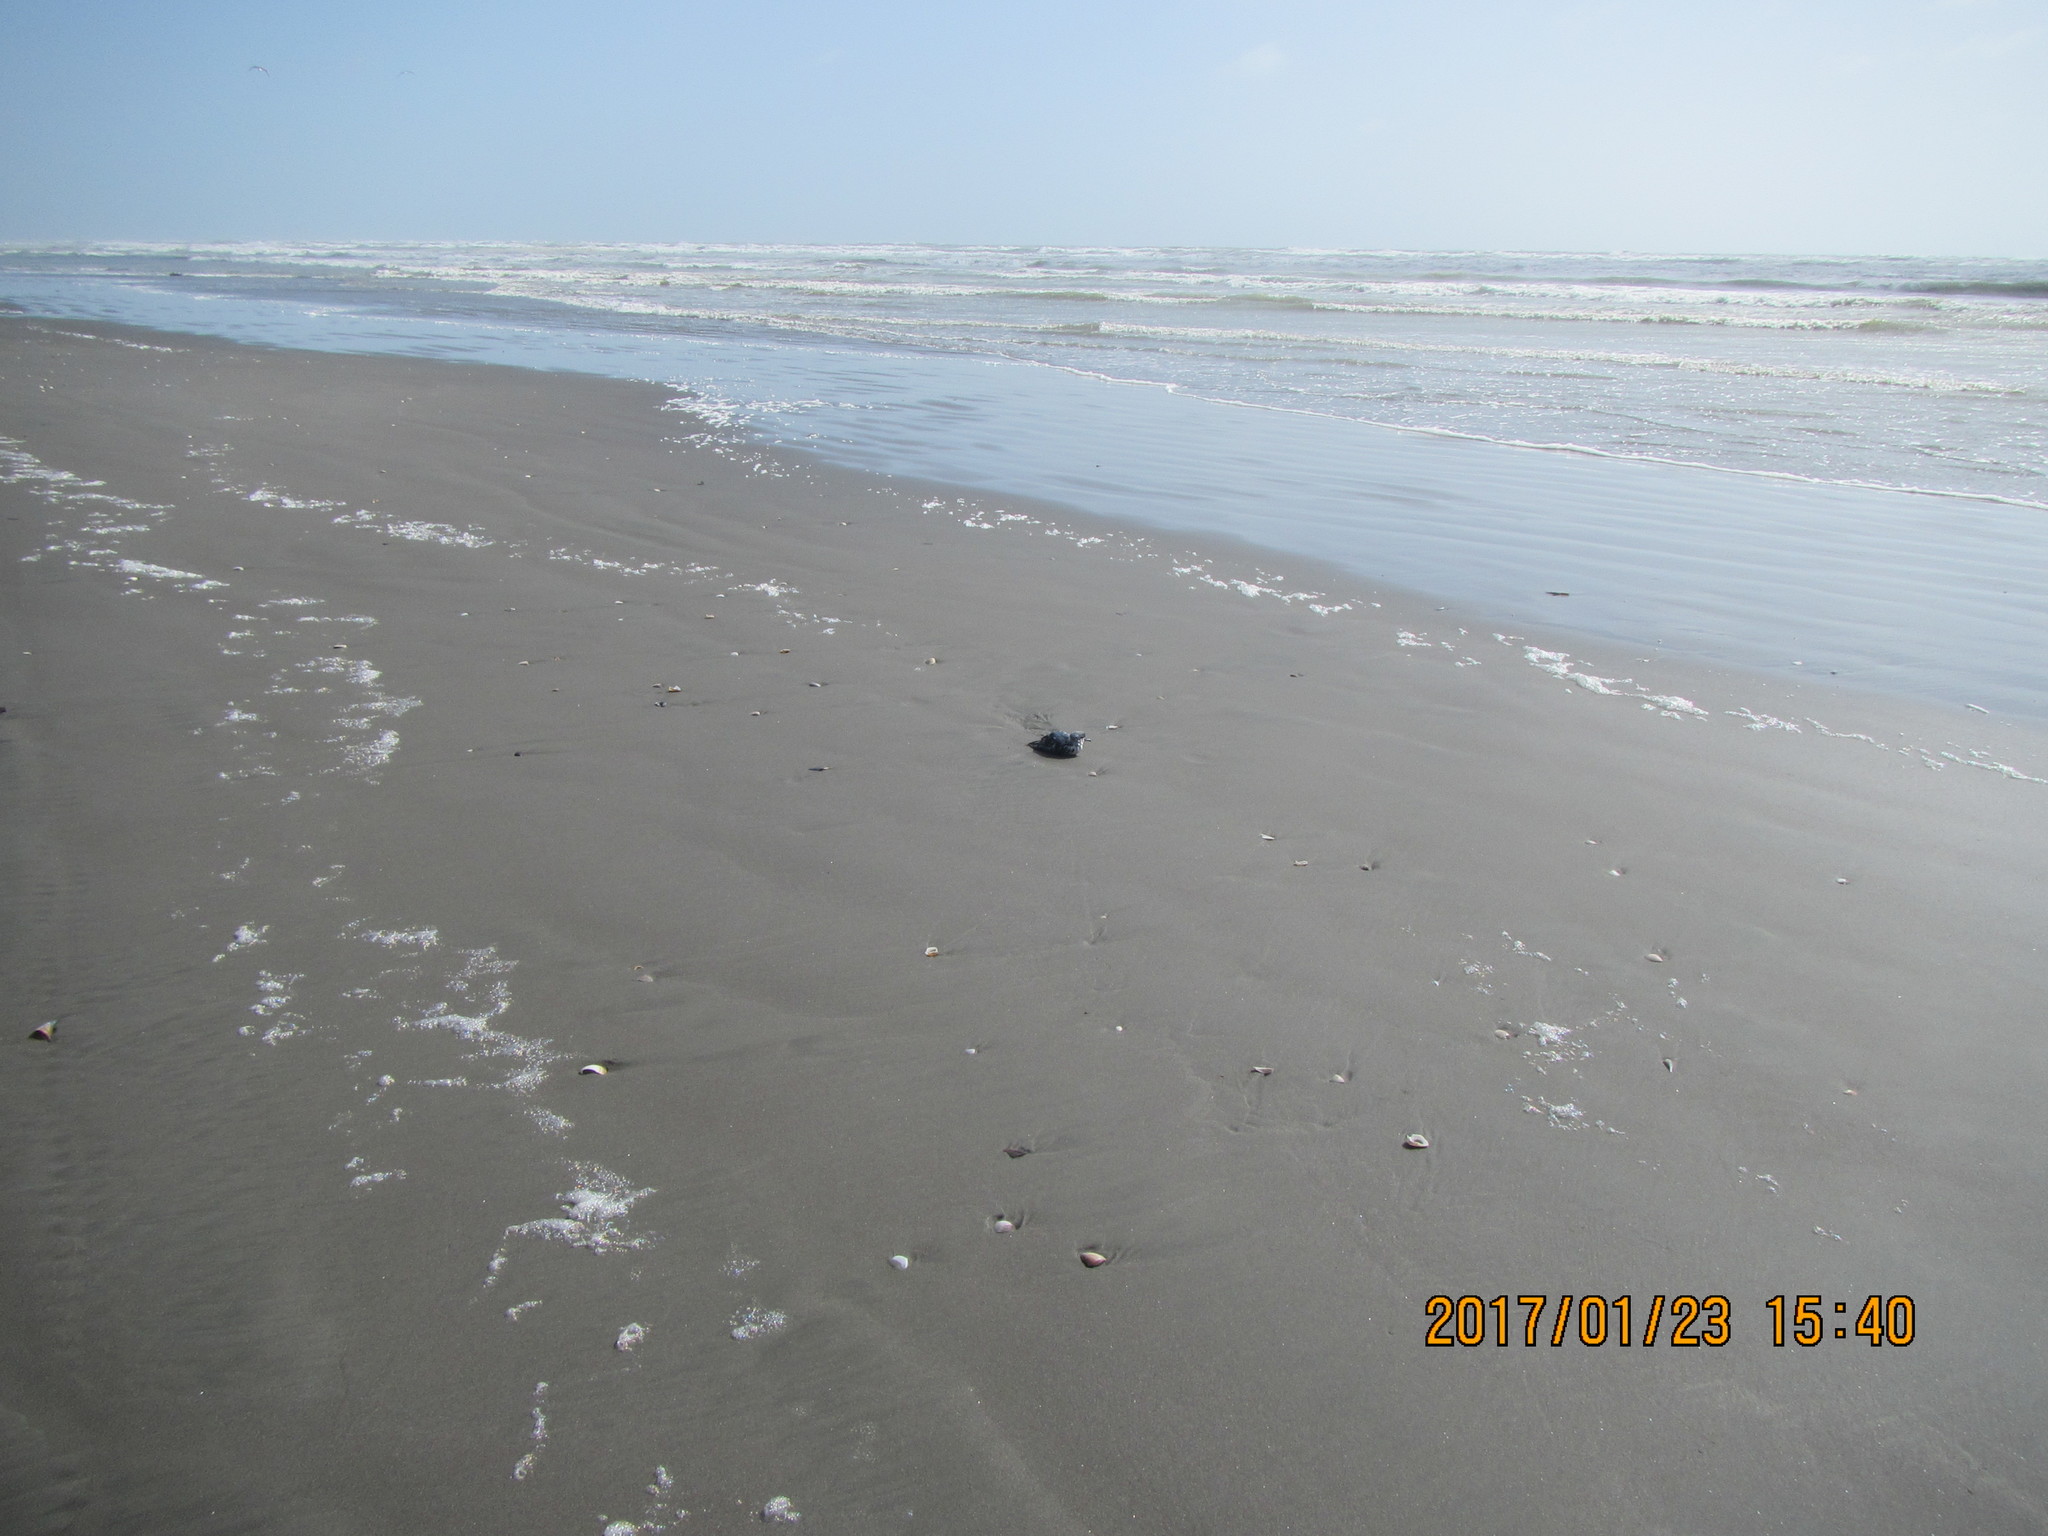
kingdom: Animalia
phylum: Chordata
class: Aves
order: Procellariiformes
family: Procellariidae
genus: Pachyptila
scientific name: Pachyptila turtur
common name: Fairy prion
